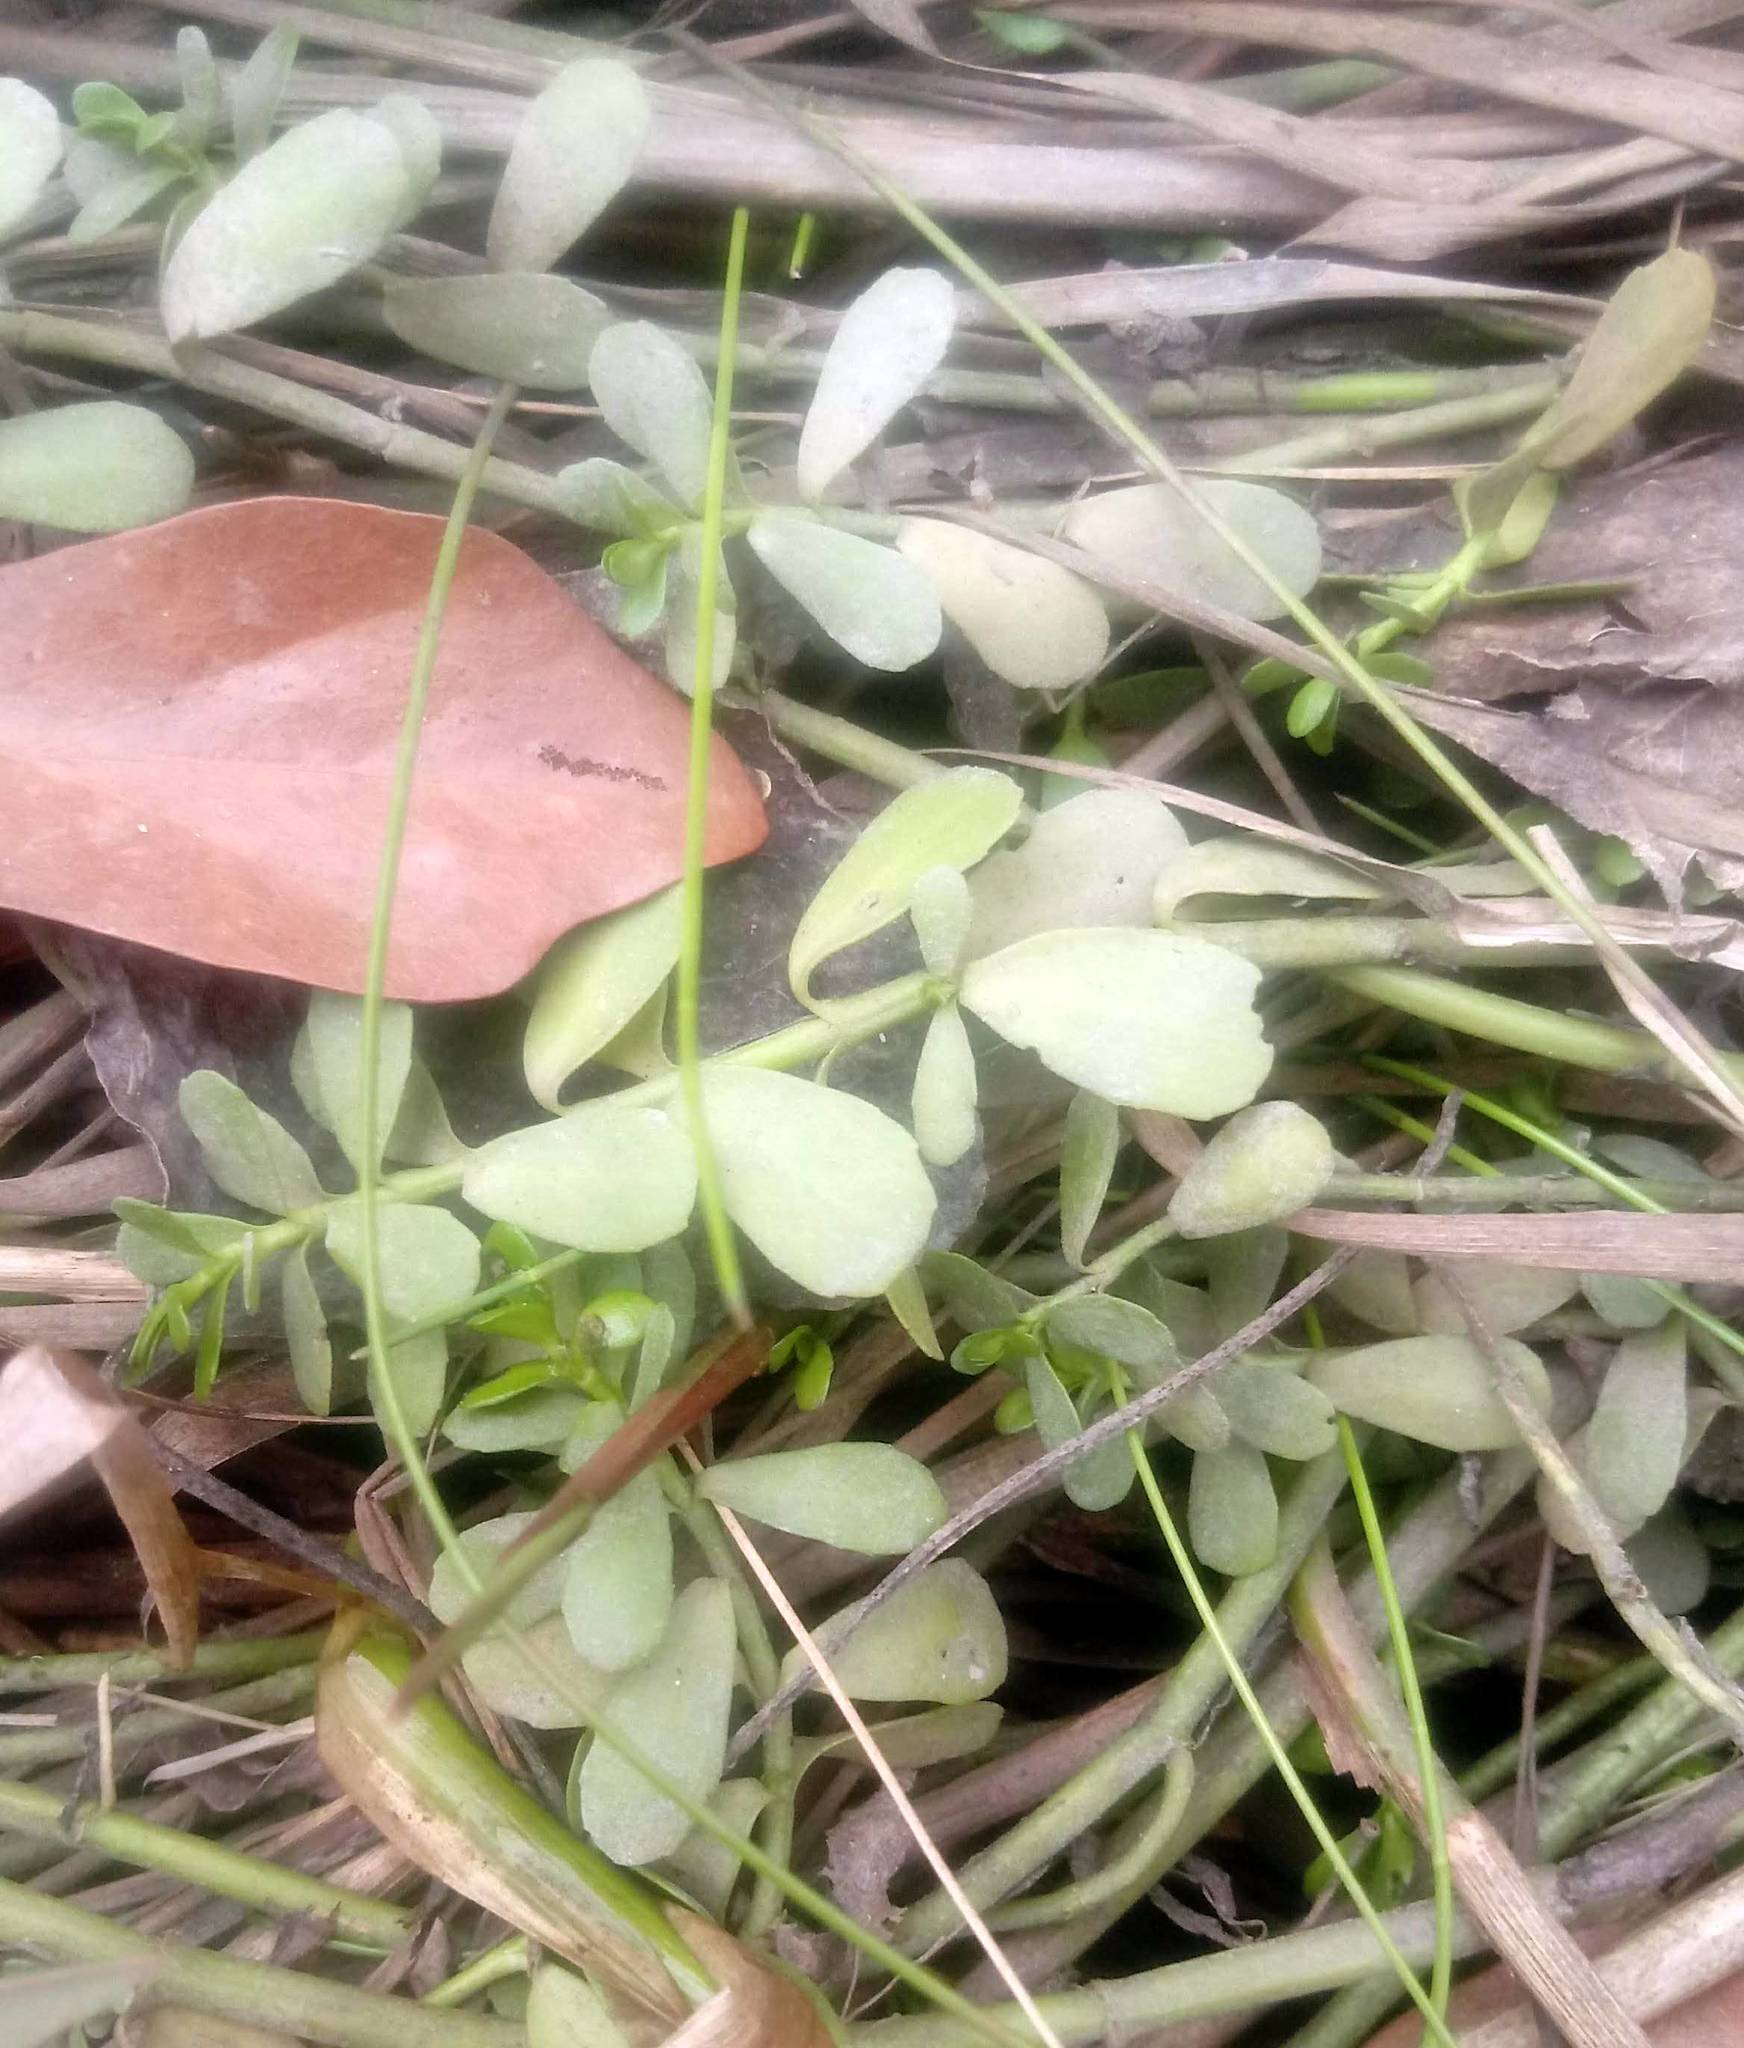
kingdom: Plantae
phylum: Tracheophyta
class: Magnoliopsida
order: Lamiales
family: Plantaginaceae
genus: Bacopa
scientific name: Bacopa monnieri
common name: Indian-pennywort
